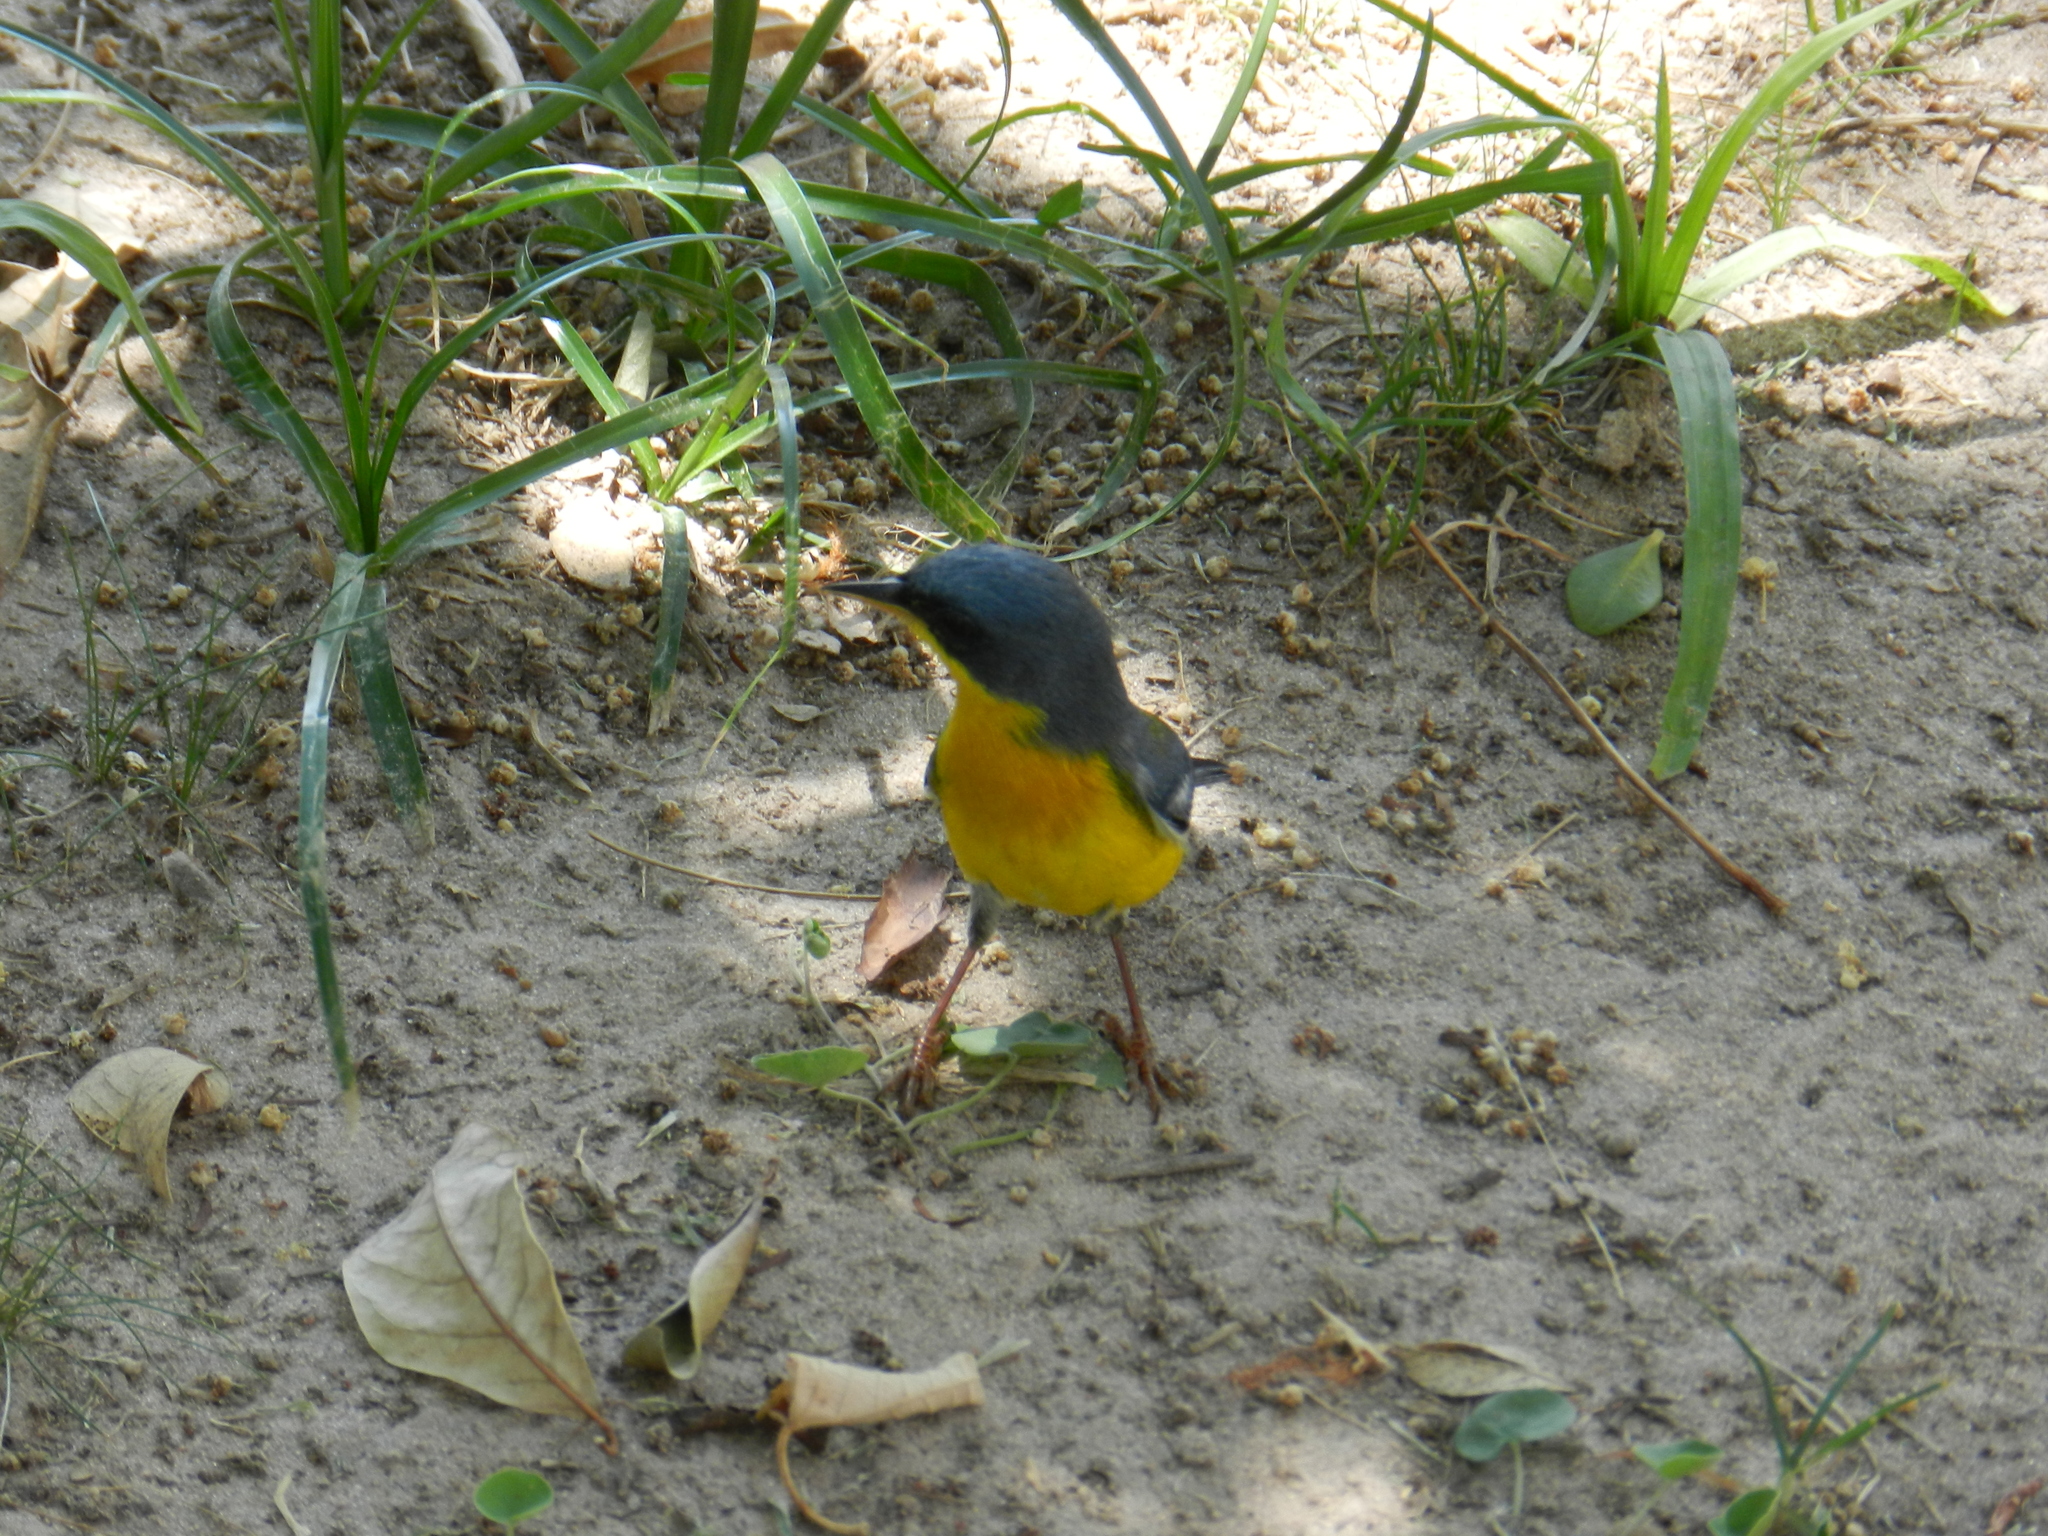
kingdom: Animalia
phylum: Chordata
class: Aves
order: Passeriformes
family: Parulidae
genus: Setophaga
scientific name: Setophaga pitiayumi
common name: Tropical parula
